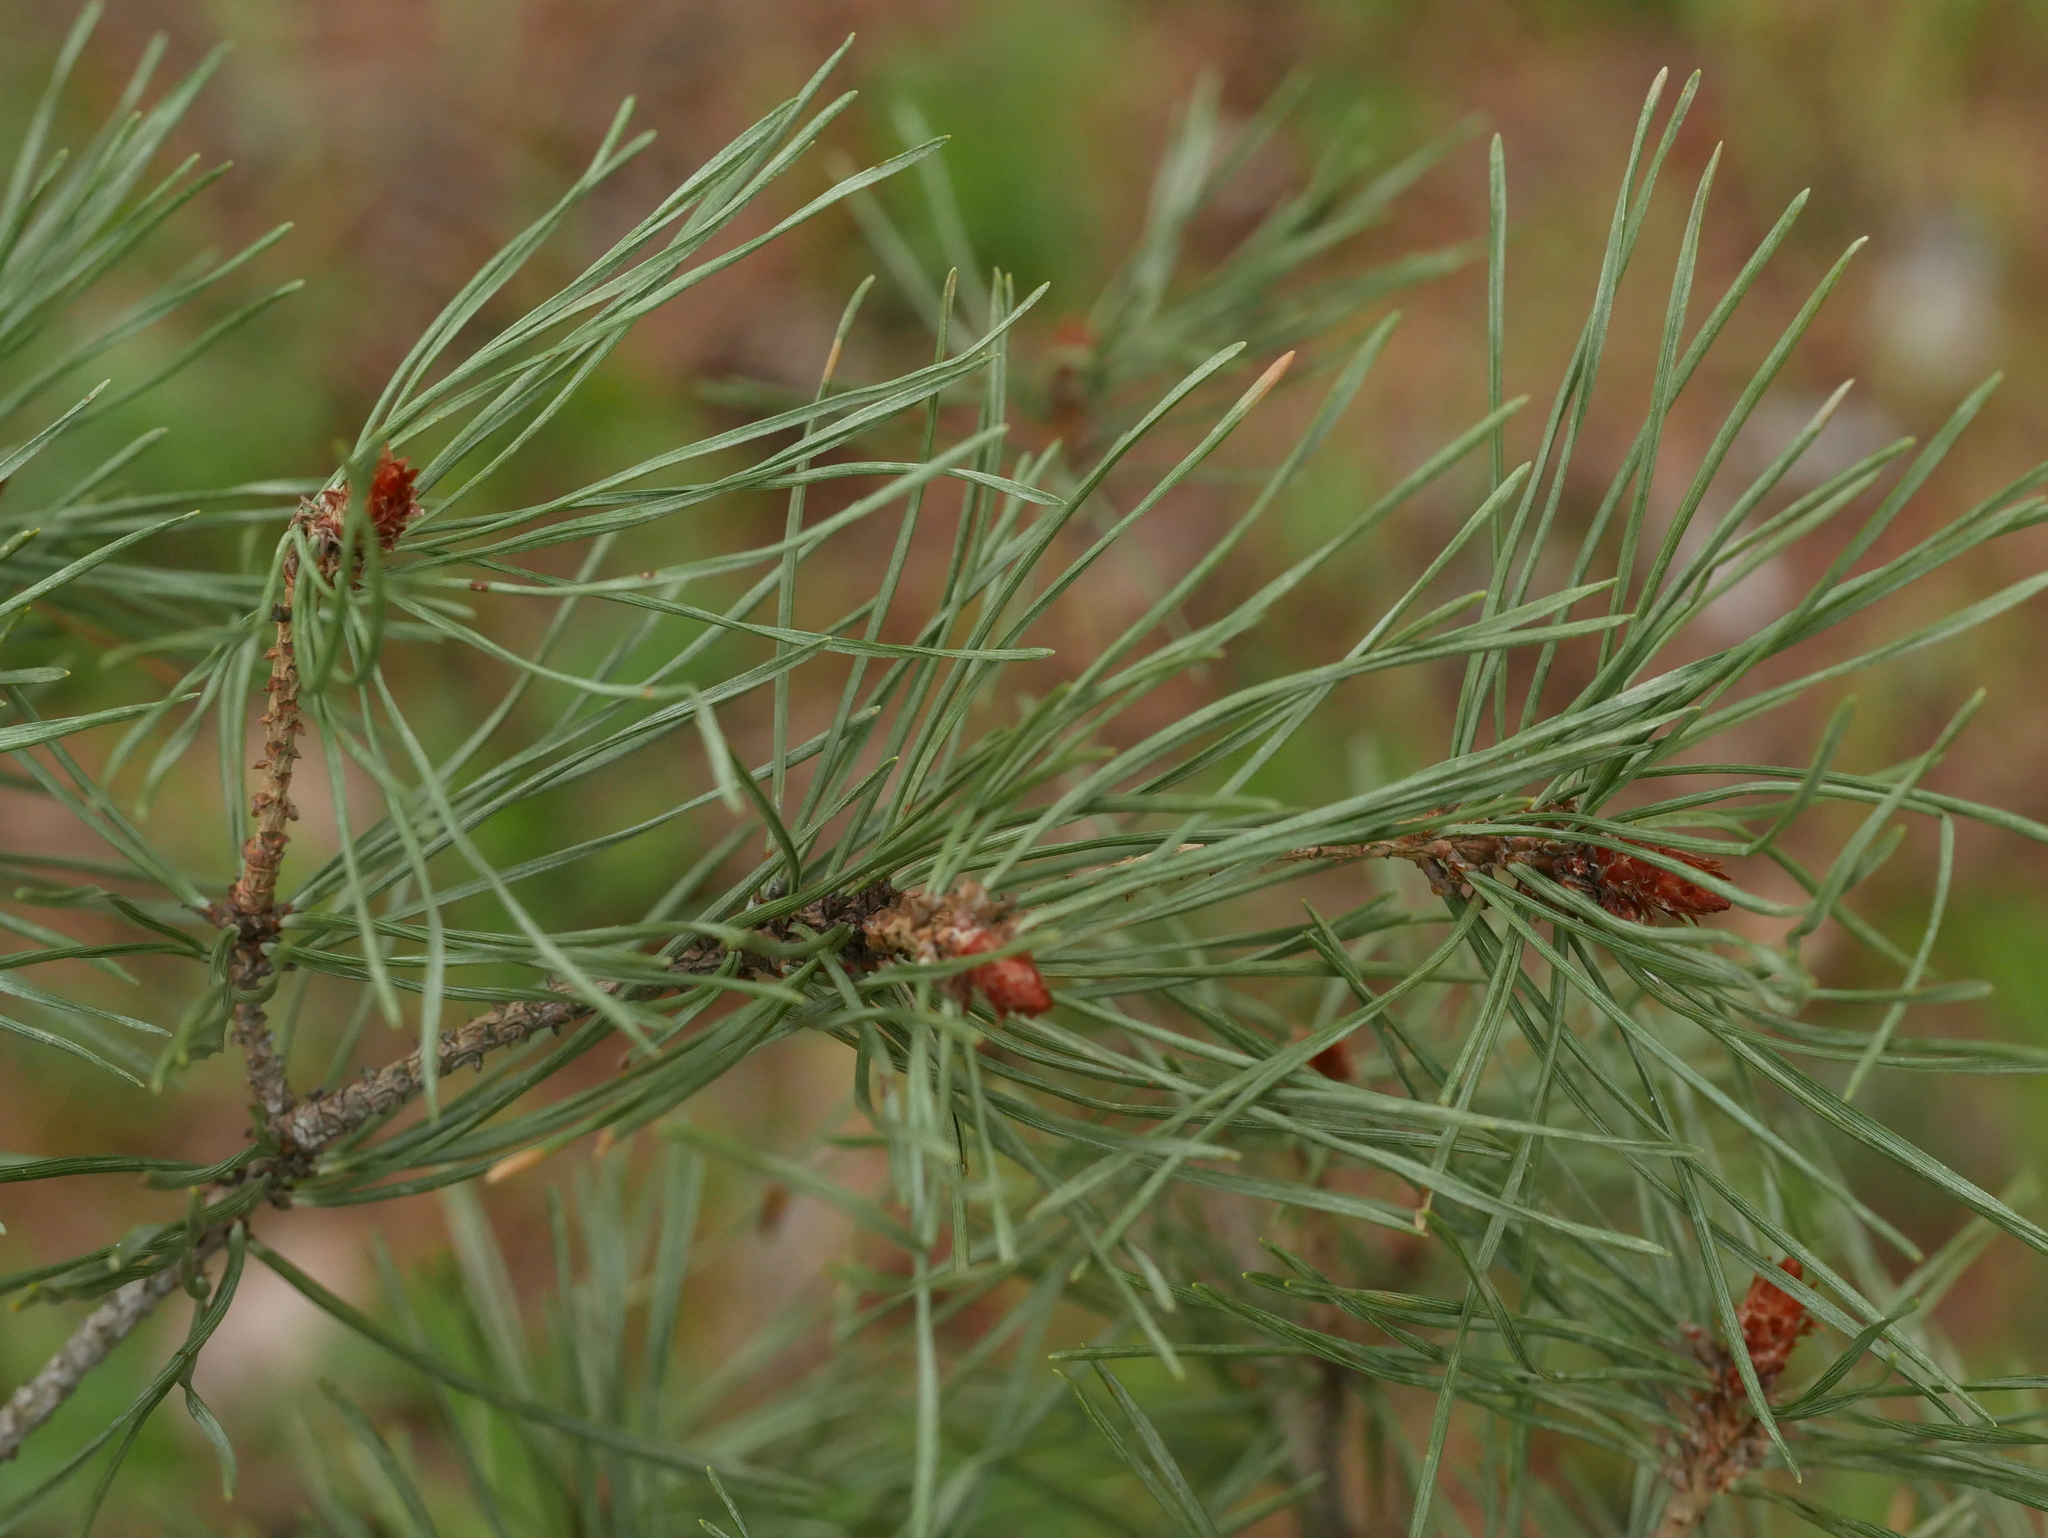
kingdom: Plantae
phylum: Tracheophyta
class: Pinopsida
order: Pinales
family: Pinaceae
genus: Pinus
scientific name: Pinus sylvestris
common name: Scots pine
